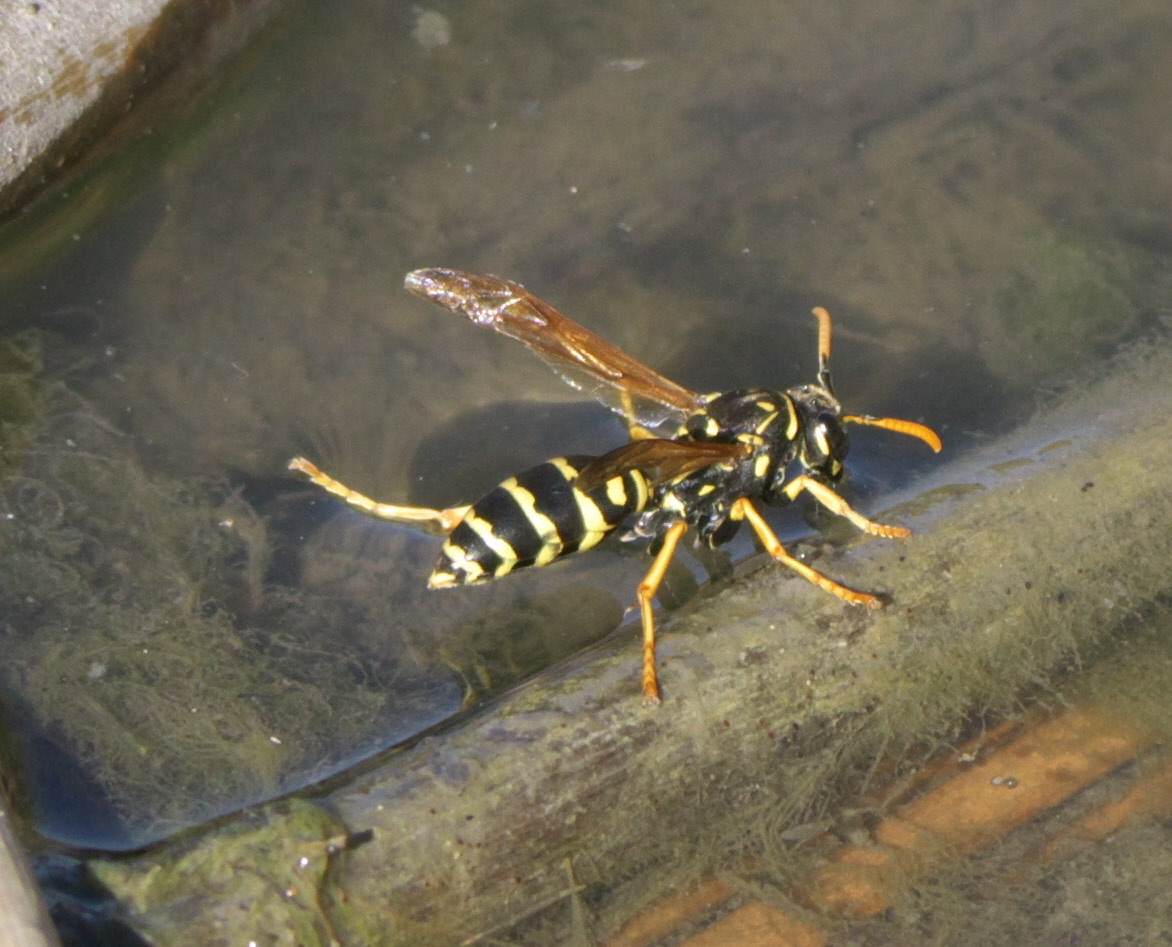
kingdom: Animalia
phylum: Arthropoda
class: Insecta
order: Hymenoptera
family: Eumenidae
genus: Polistes
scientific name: Polistes dominula
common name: Paper wasp
